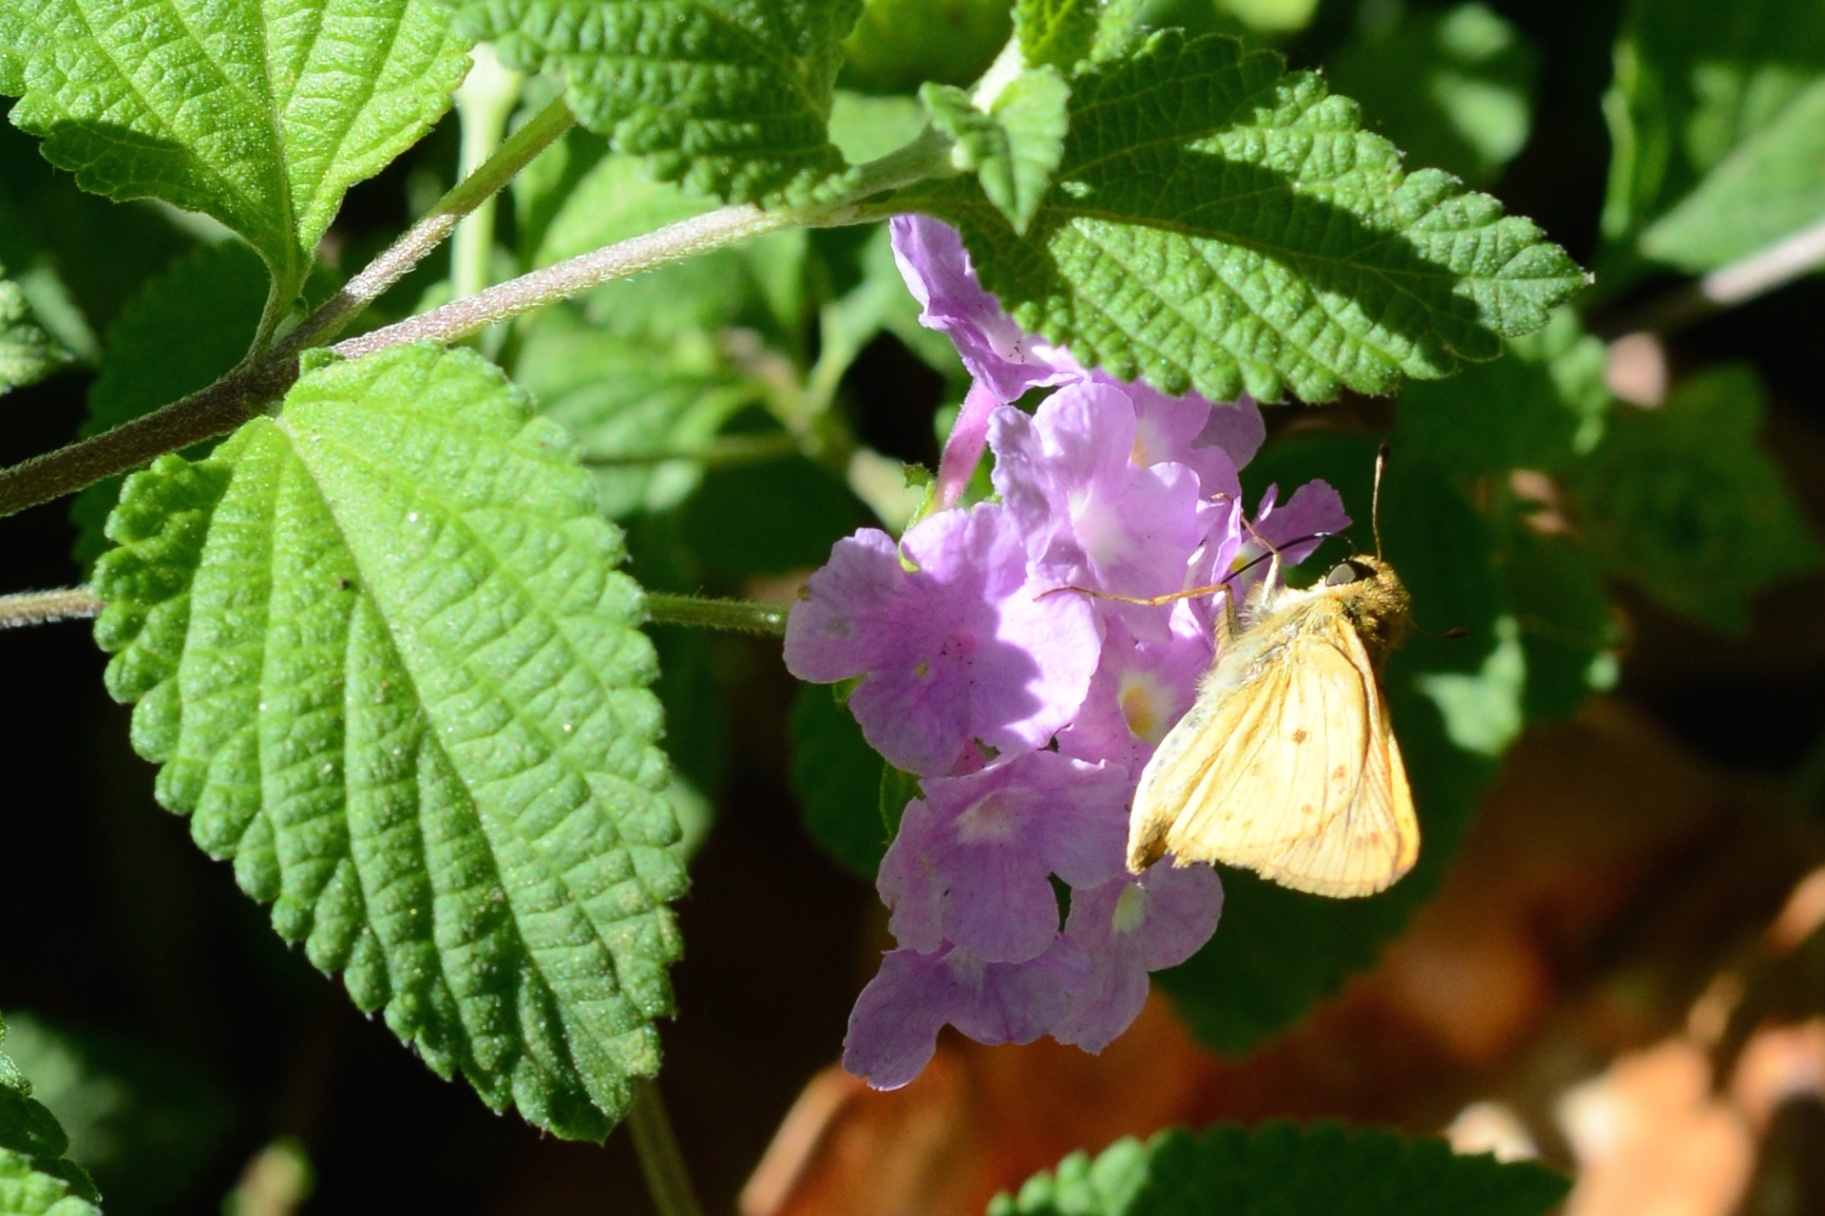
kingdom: Animalia
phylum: Arthropoda
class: Insecta
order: Lepidoptera
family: Hesperiidae
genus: Hylephila
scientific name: Hylephila phyleus
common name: Fiery skipper
